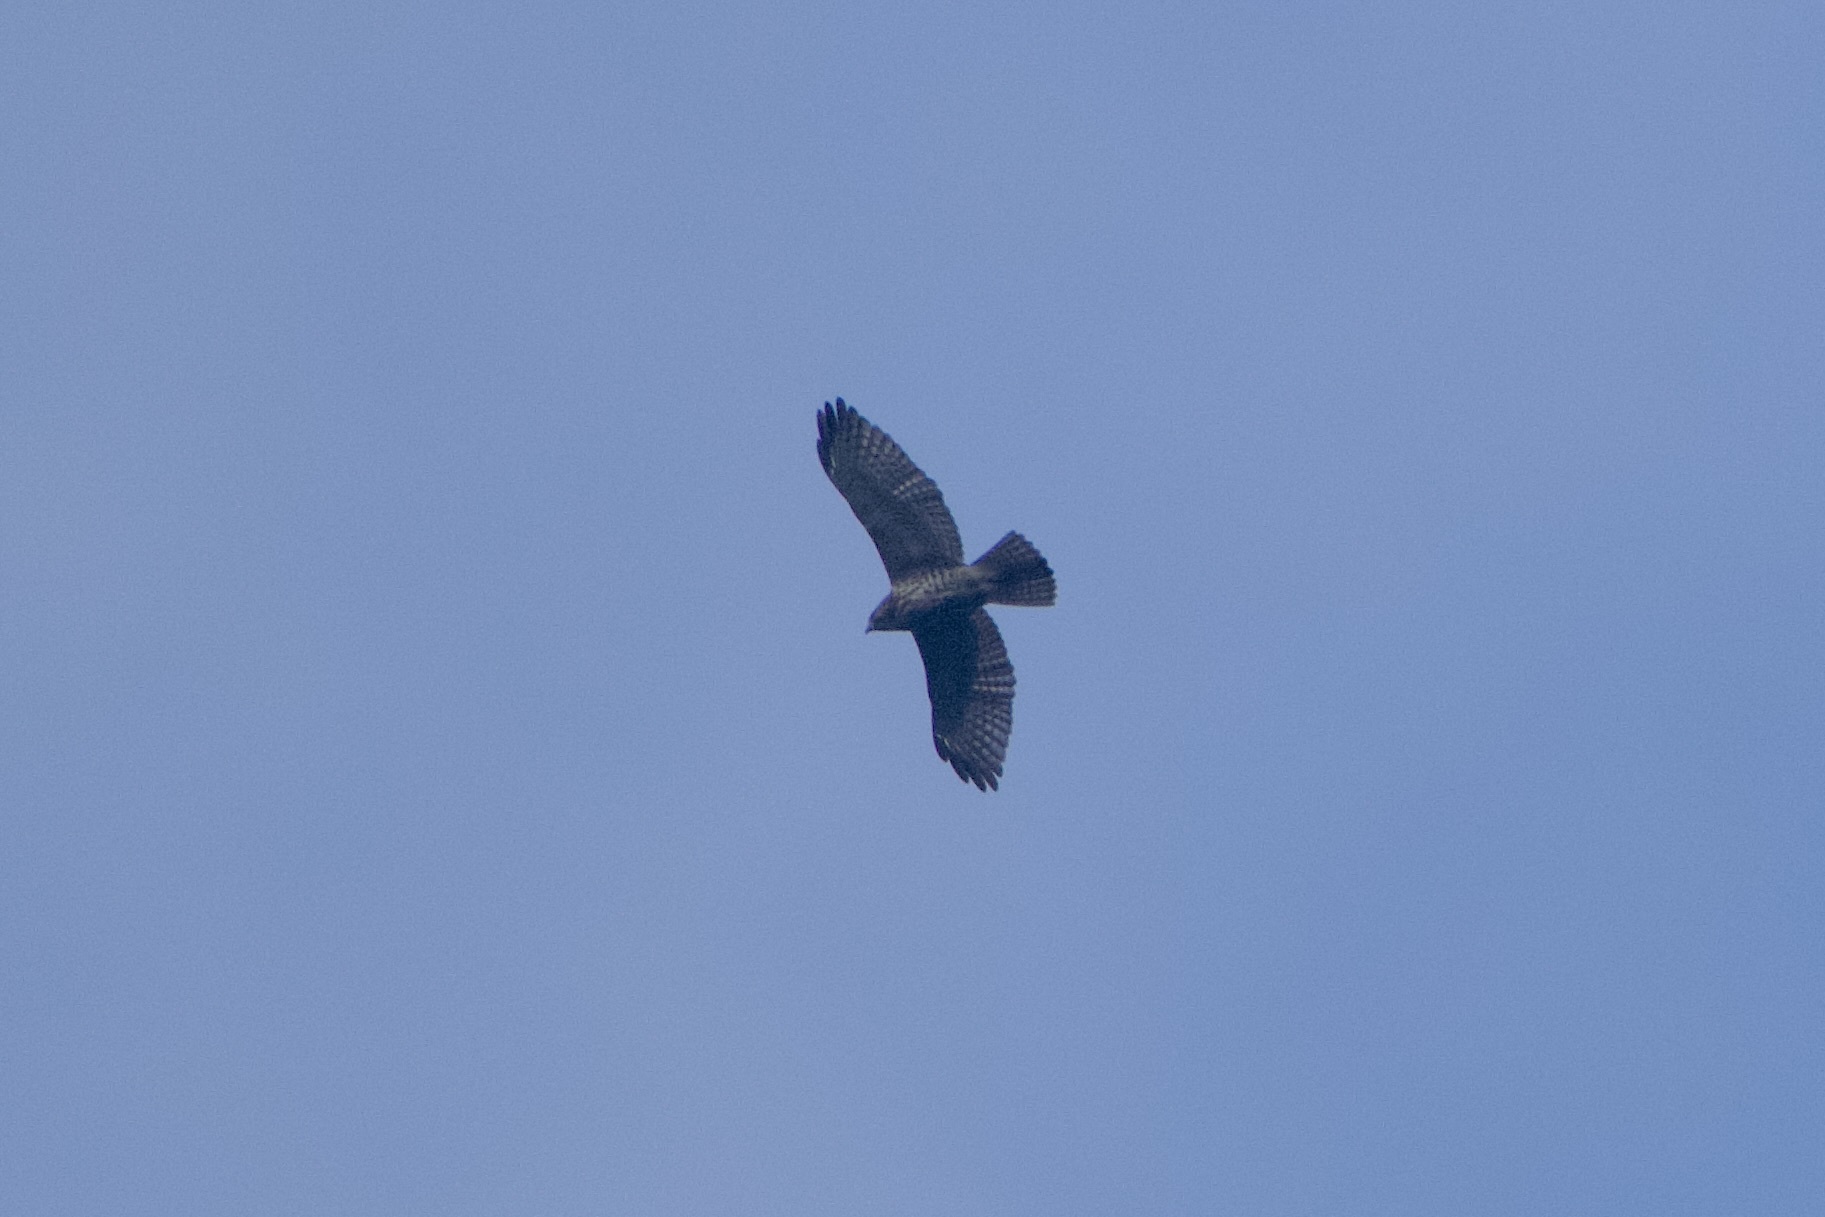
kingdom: Animalia
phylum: Chordata
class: Aves
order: Accipitriformes
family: Accipitridae
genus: Buteo
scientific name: Buteo platypterus
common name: Broad-winged hawk
